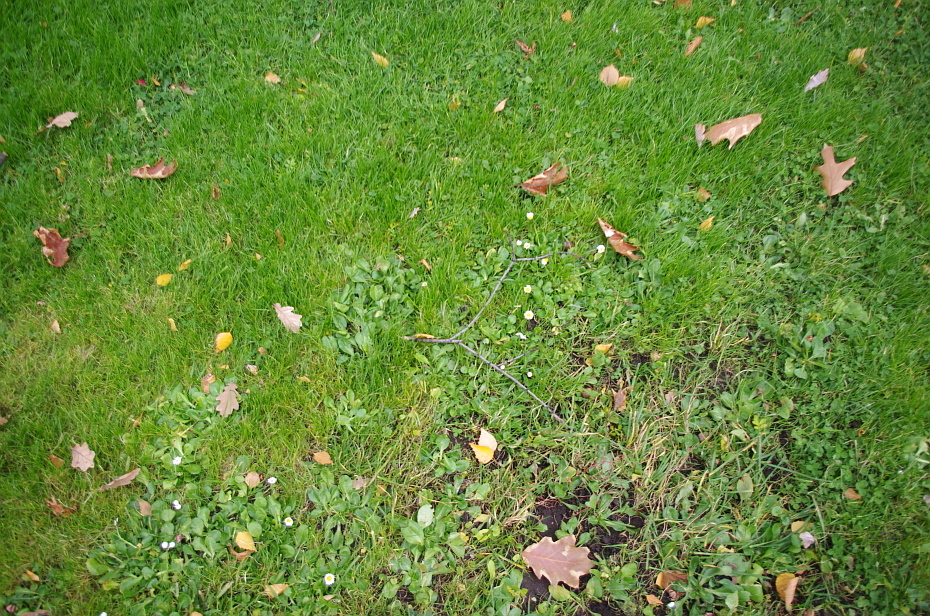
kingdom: Plantae
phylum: Tracheophyta
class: Magnoliopsida
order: Asterales
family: Asteraceae
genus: Bellis
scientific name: Bellis perennis
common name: Lawndaisy
